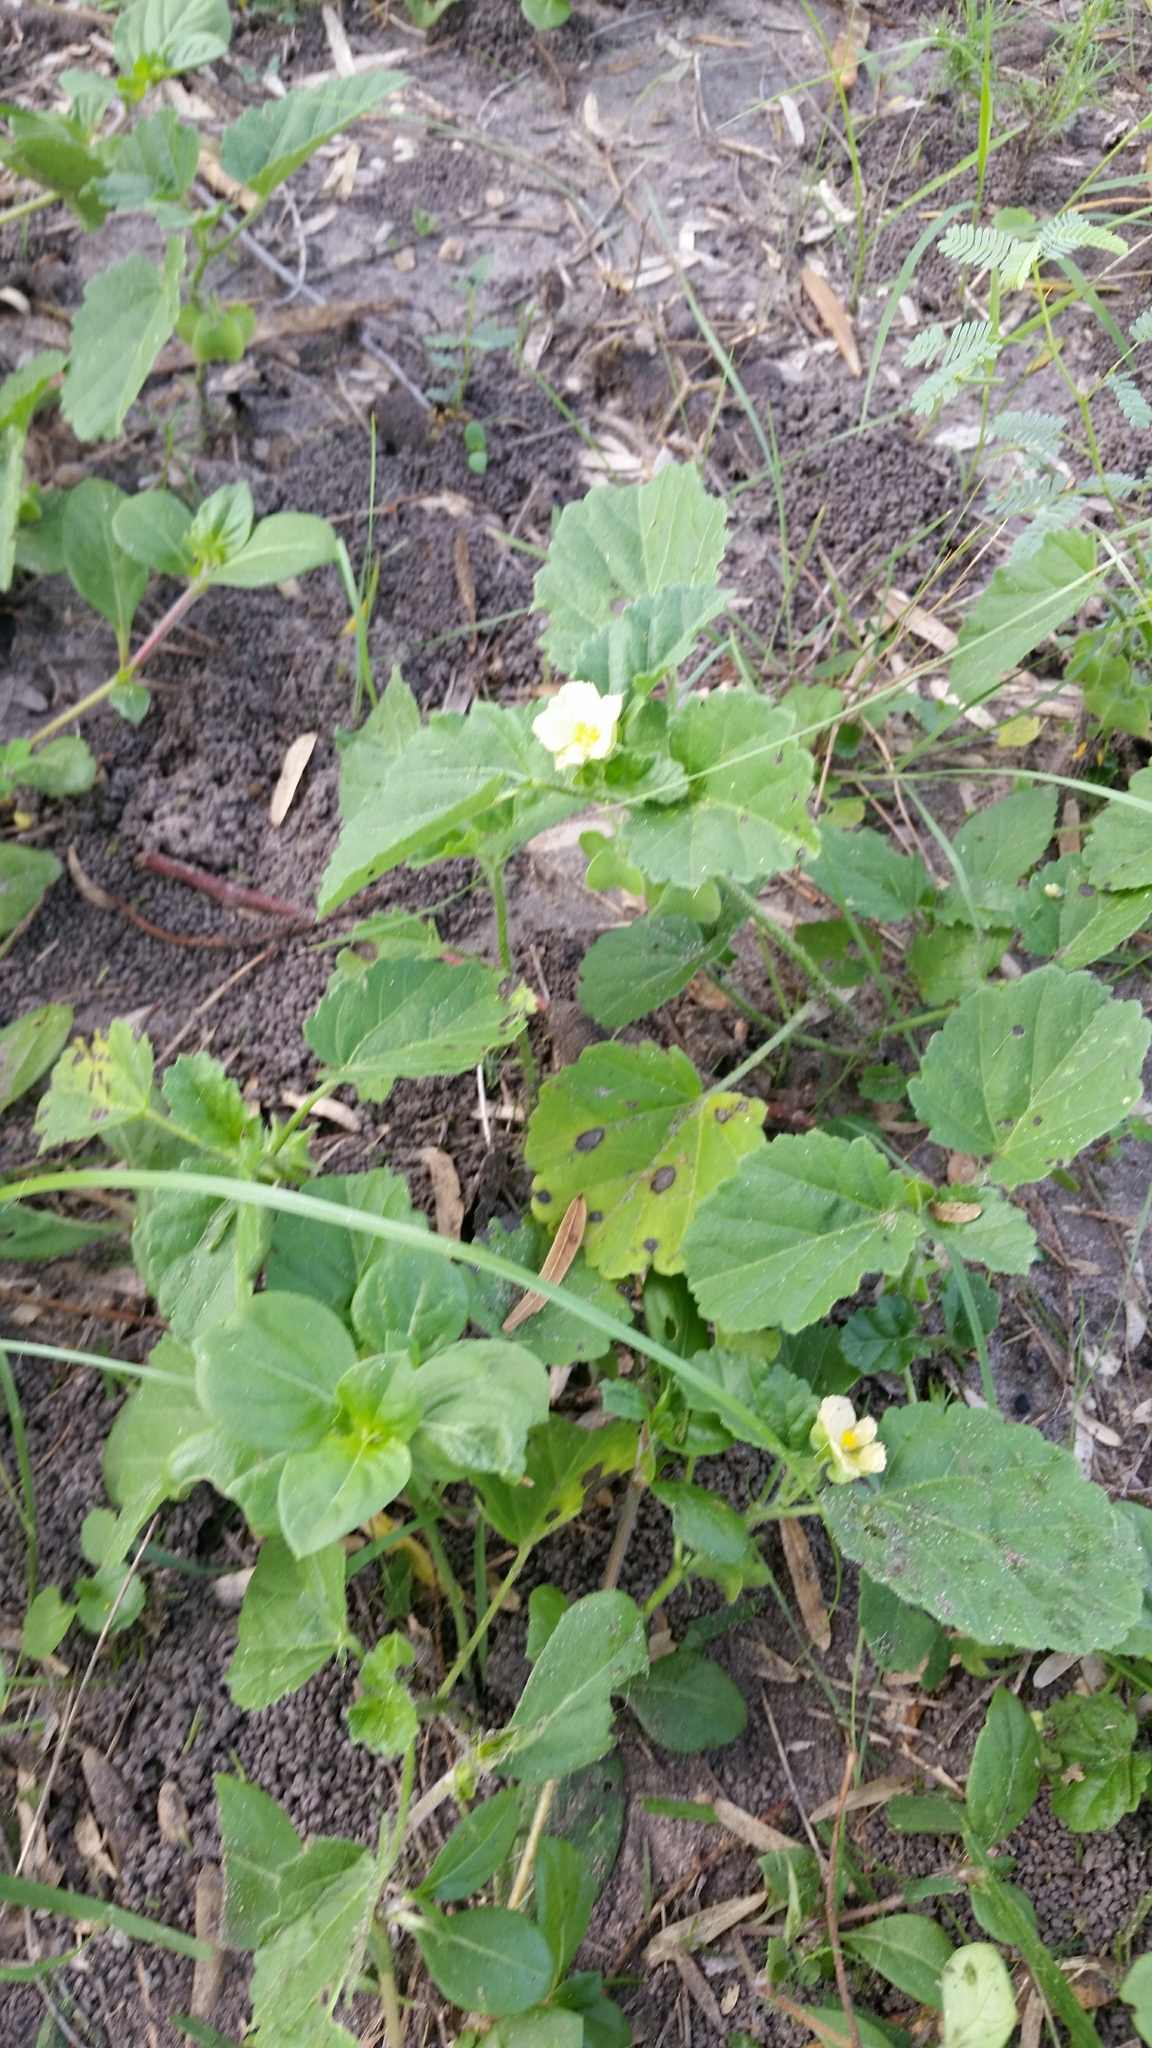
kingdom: Plantae
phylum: Tracheophyta
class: Magnoliopsida
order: Malvales
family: Malvaceae
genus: Rhynchosida
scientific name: Rhynchosida physocalyx
